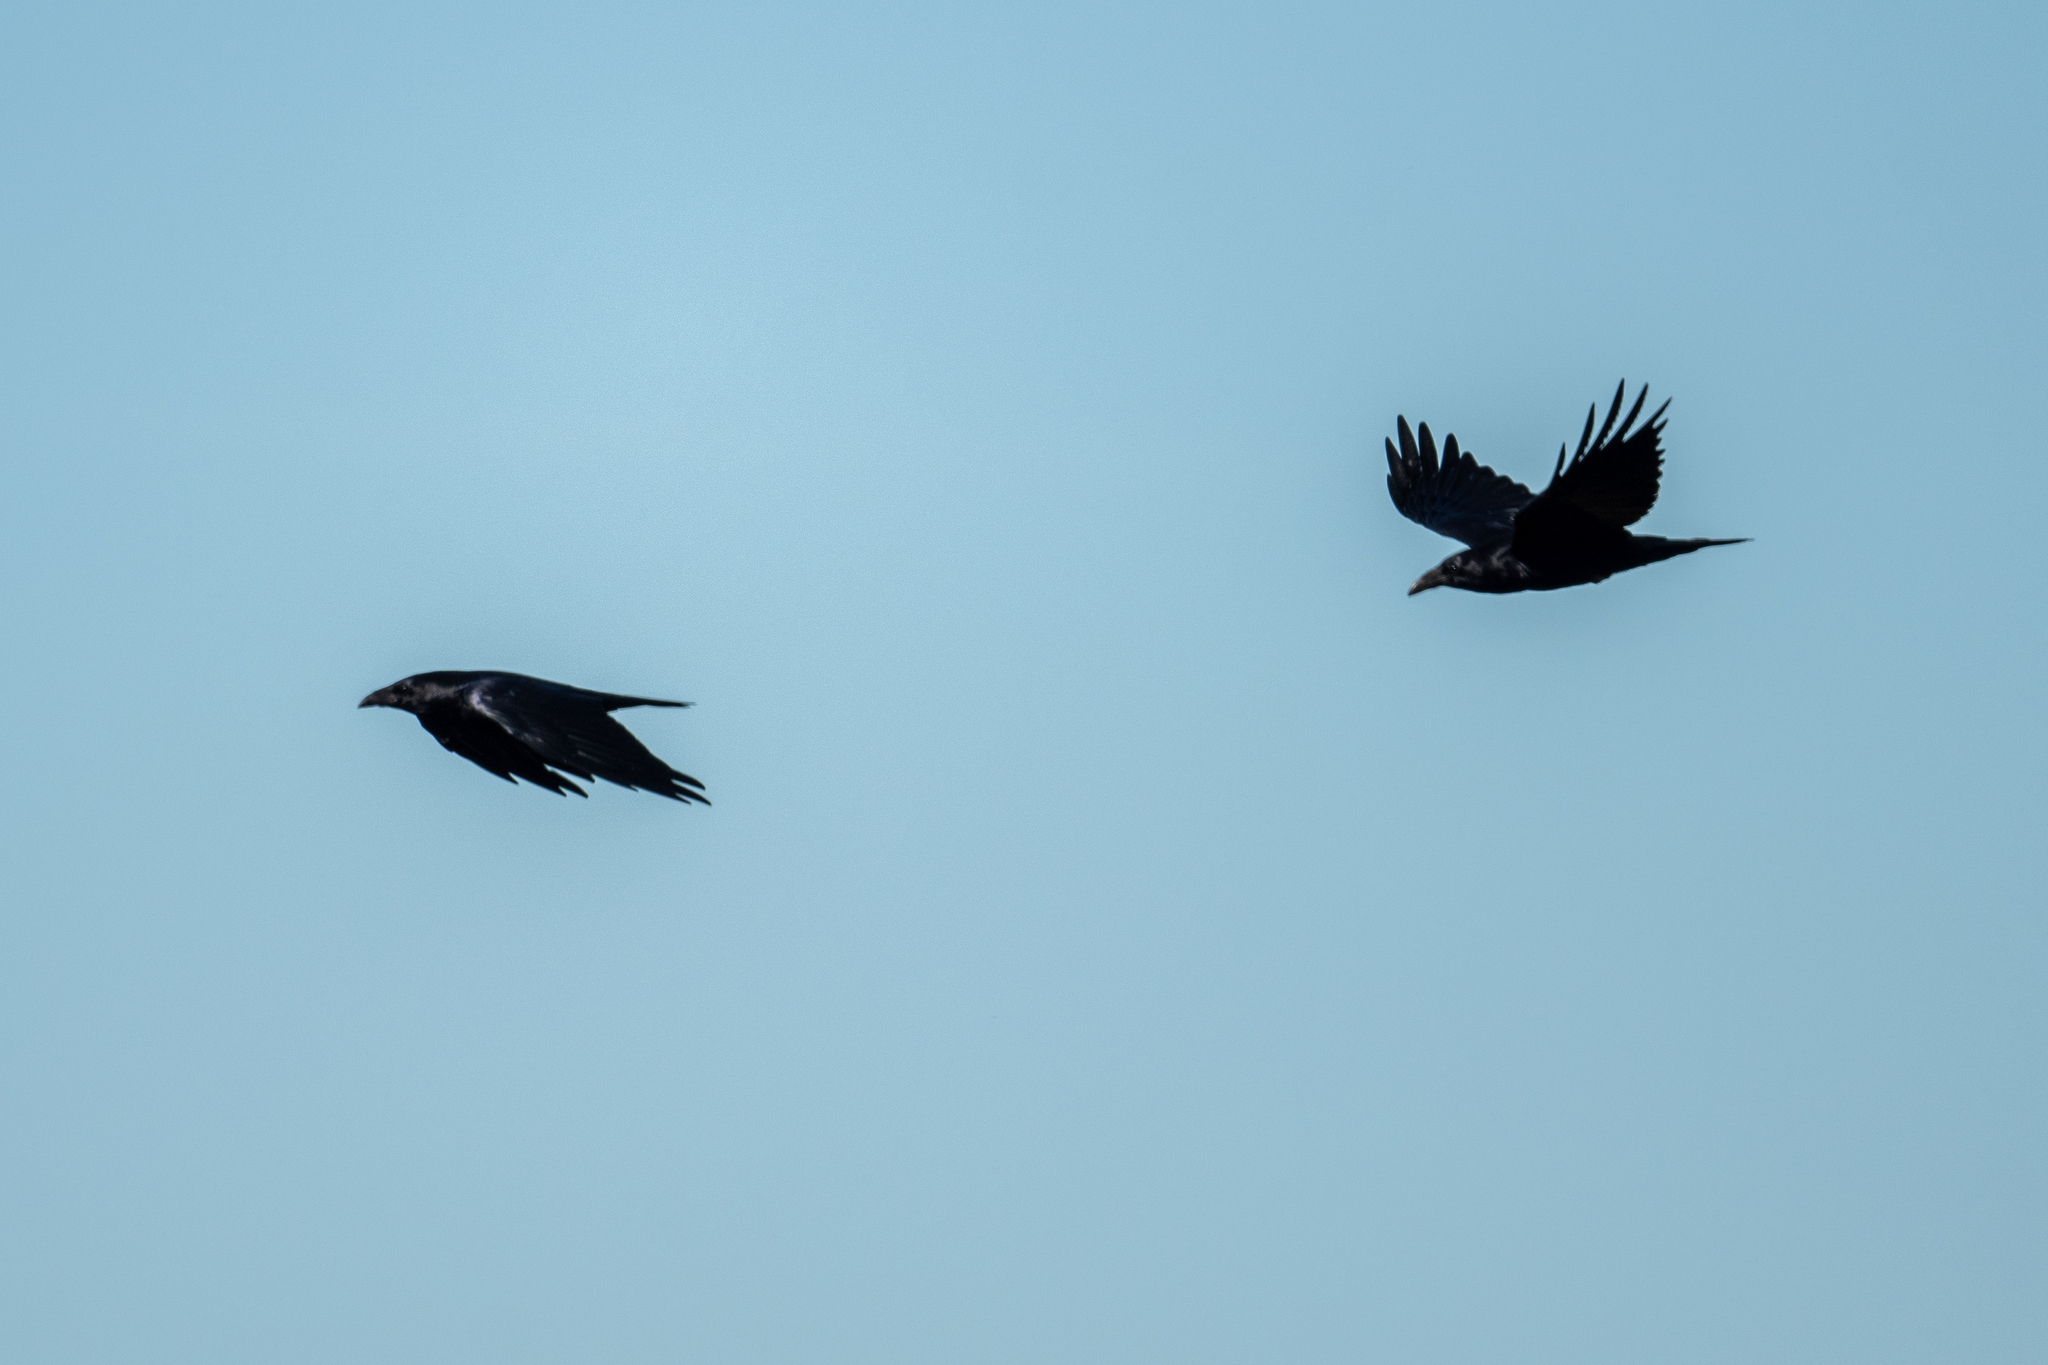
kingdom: Animalia
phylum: Chordata
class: Aves
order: Passeriformes
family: Corvidae
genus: Corvus
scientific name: Corvus corax
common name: Common raven
